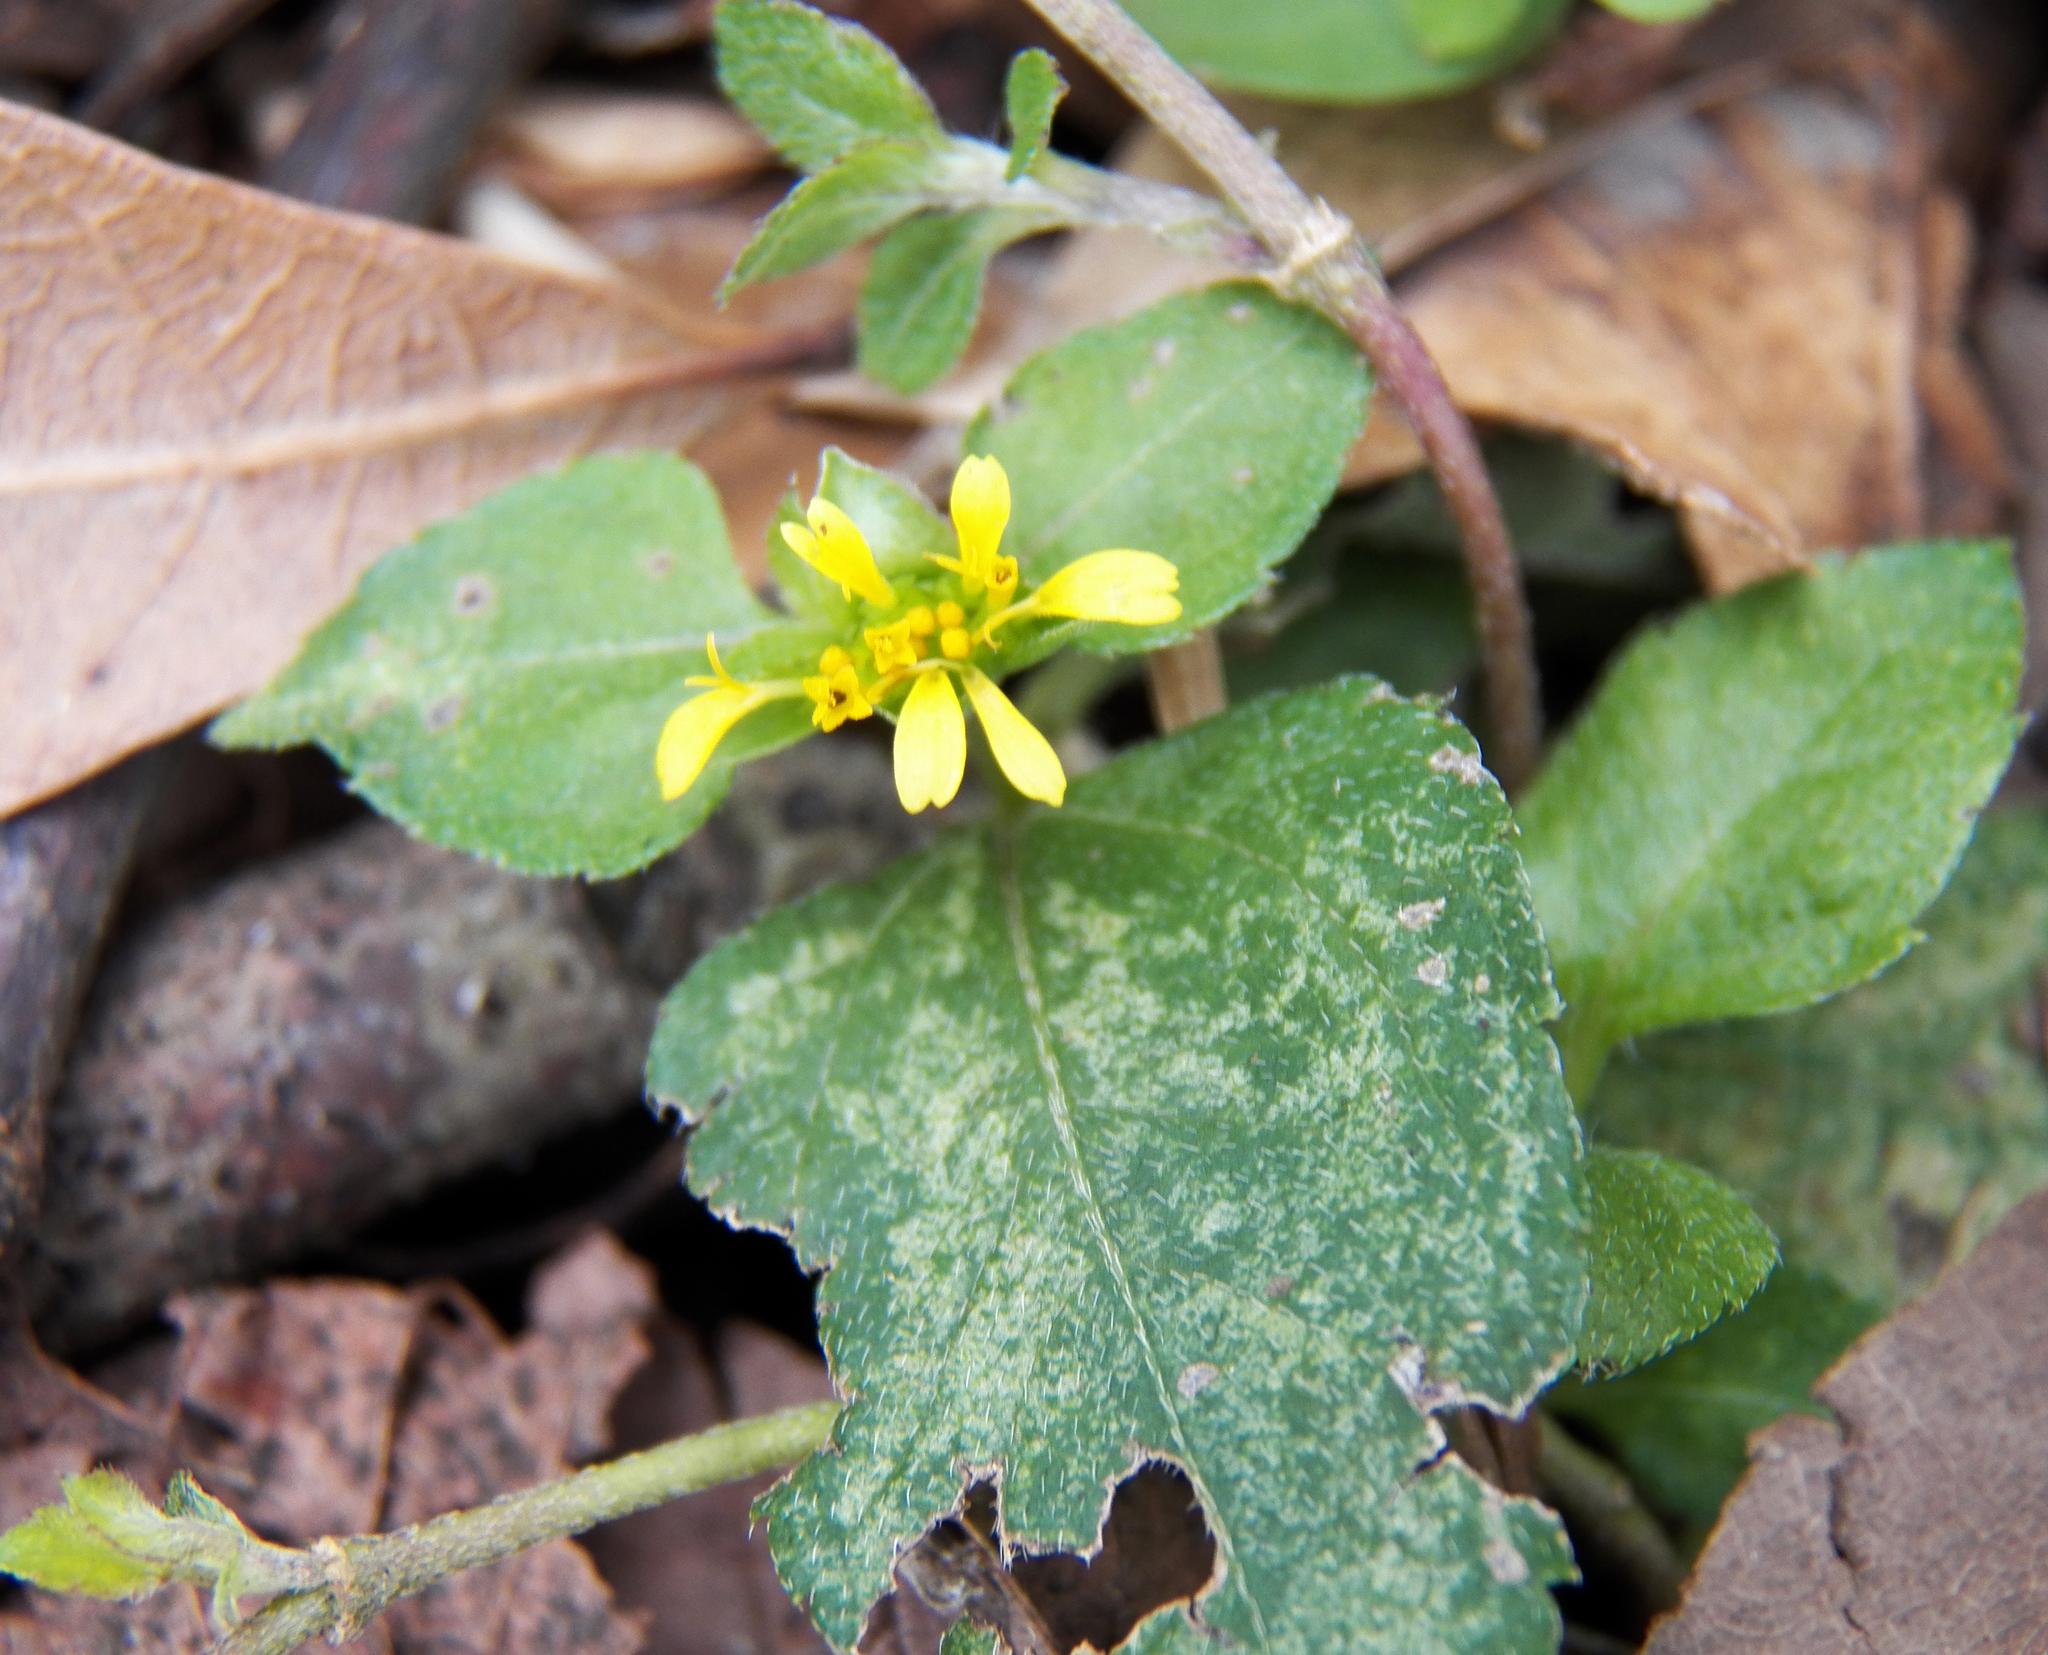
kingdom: Plantae
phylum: Tracheophyta
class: Magnoliopsida
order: Asterales
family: Asteraceae
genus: Calyptocarpus
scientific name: Calyptocarpus vialis
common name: Straggler daisy
